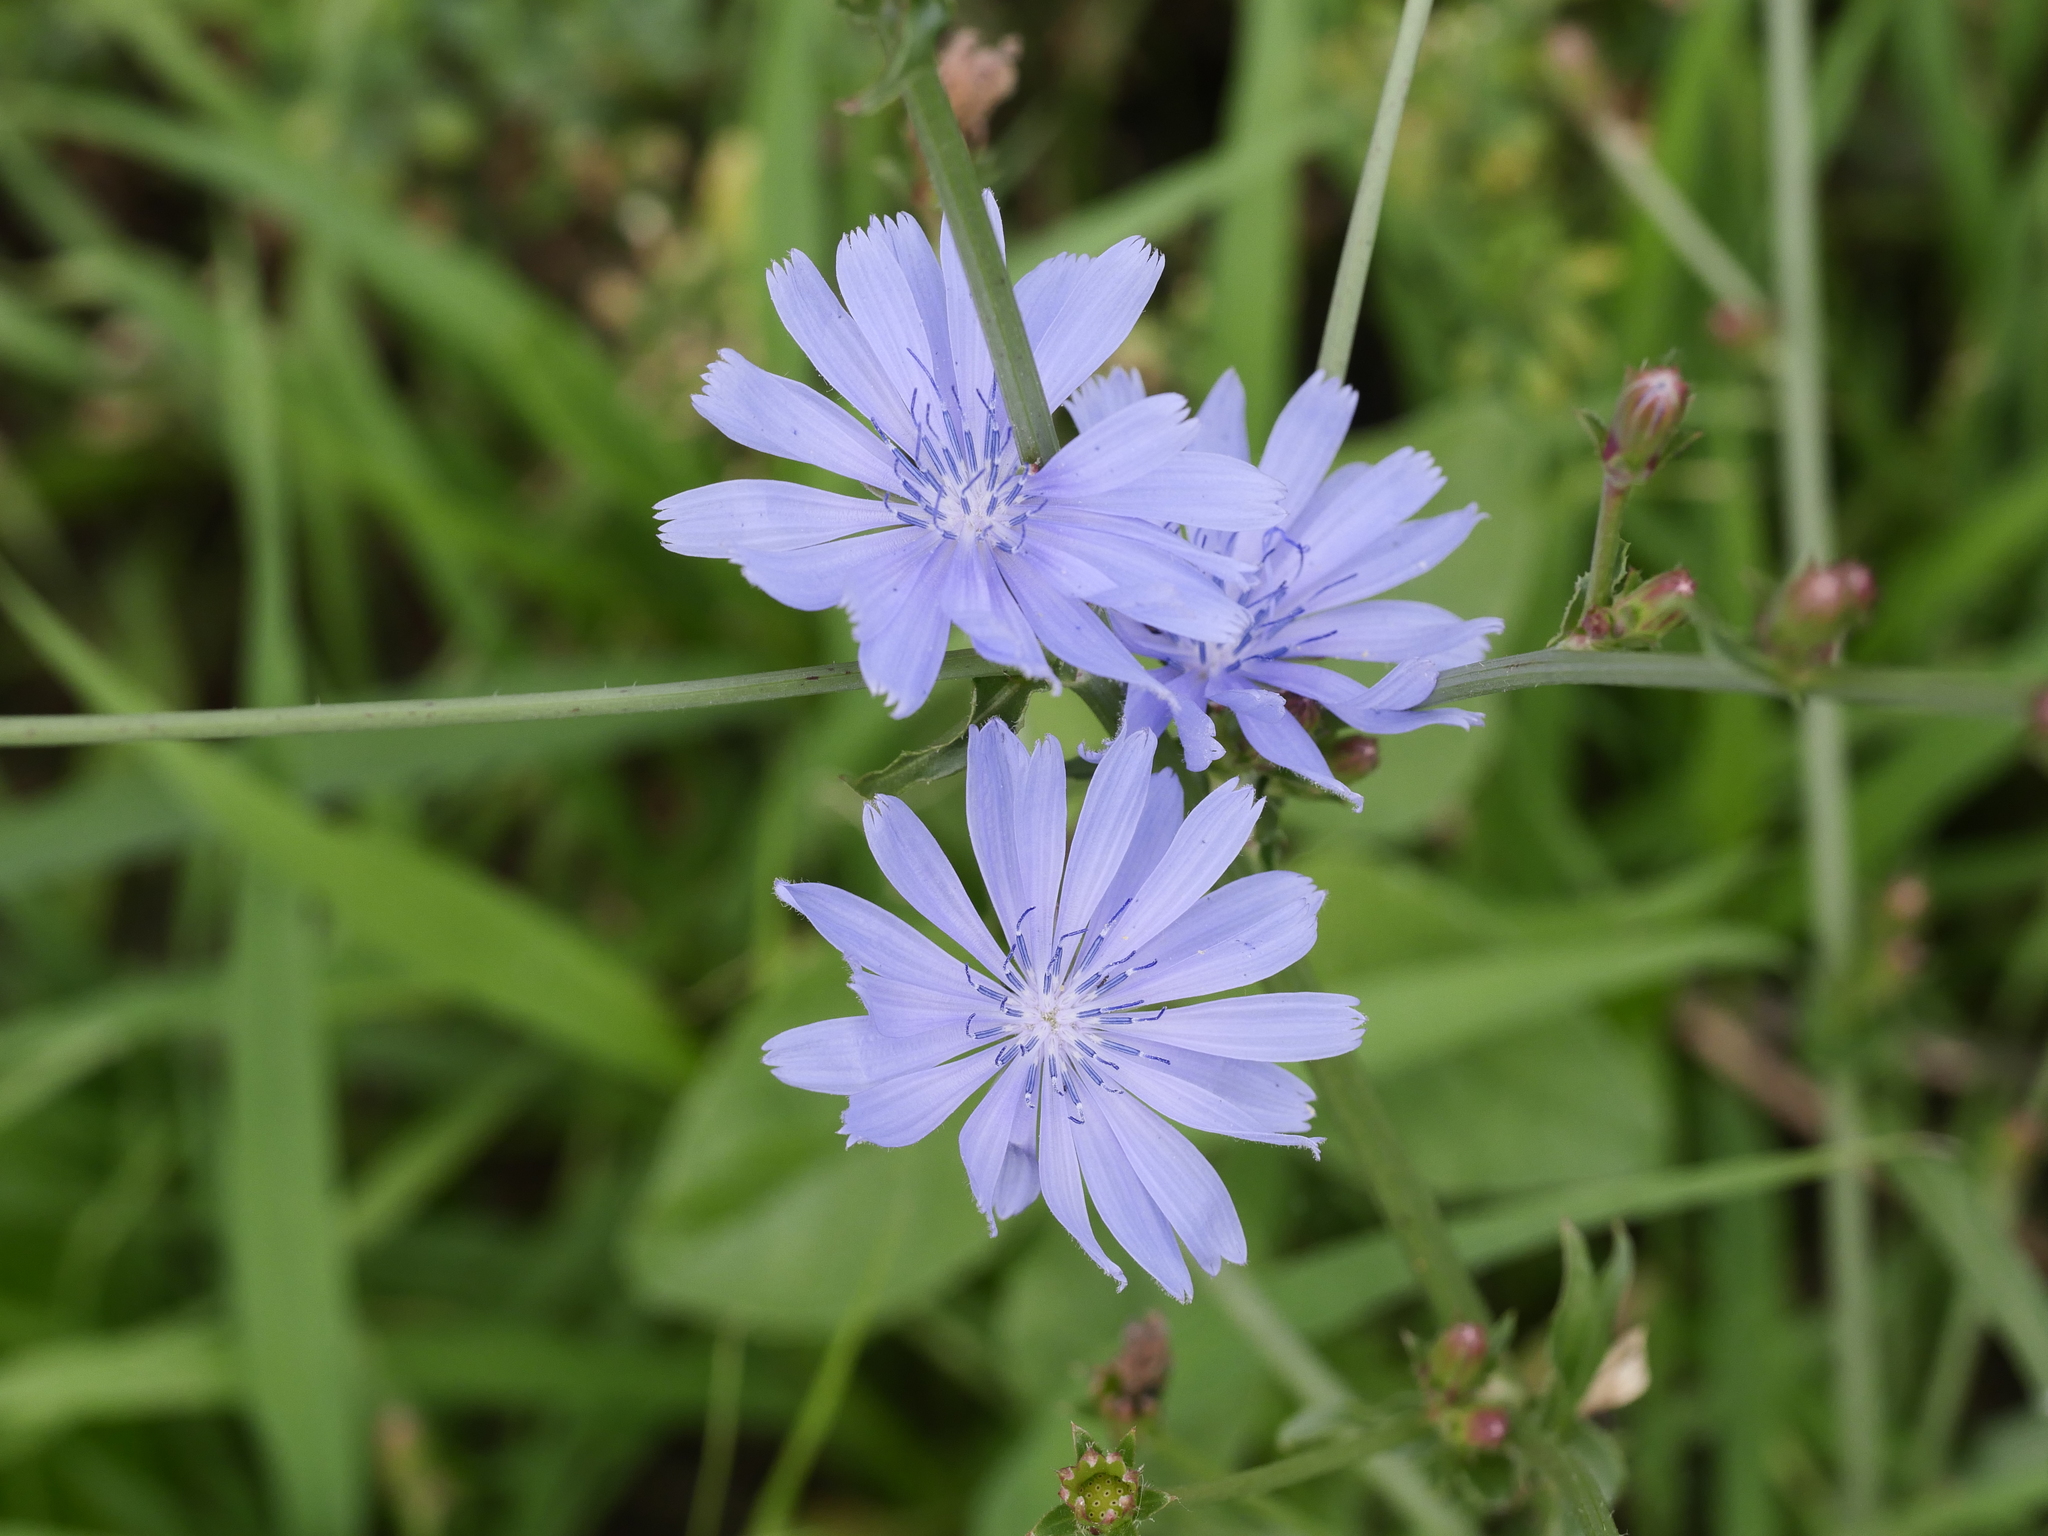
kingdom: Plantae
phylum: Tracheophyta
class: Magnoliopsida
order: Asterales
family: Asteraceae
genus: Cichorium
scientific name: Cichorium intybus
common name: Chicory
